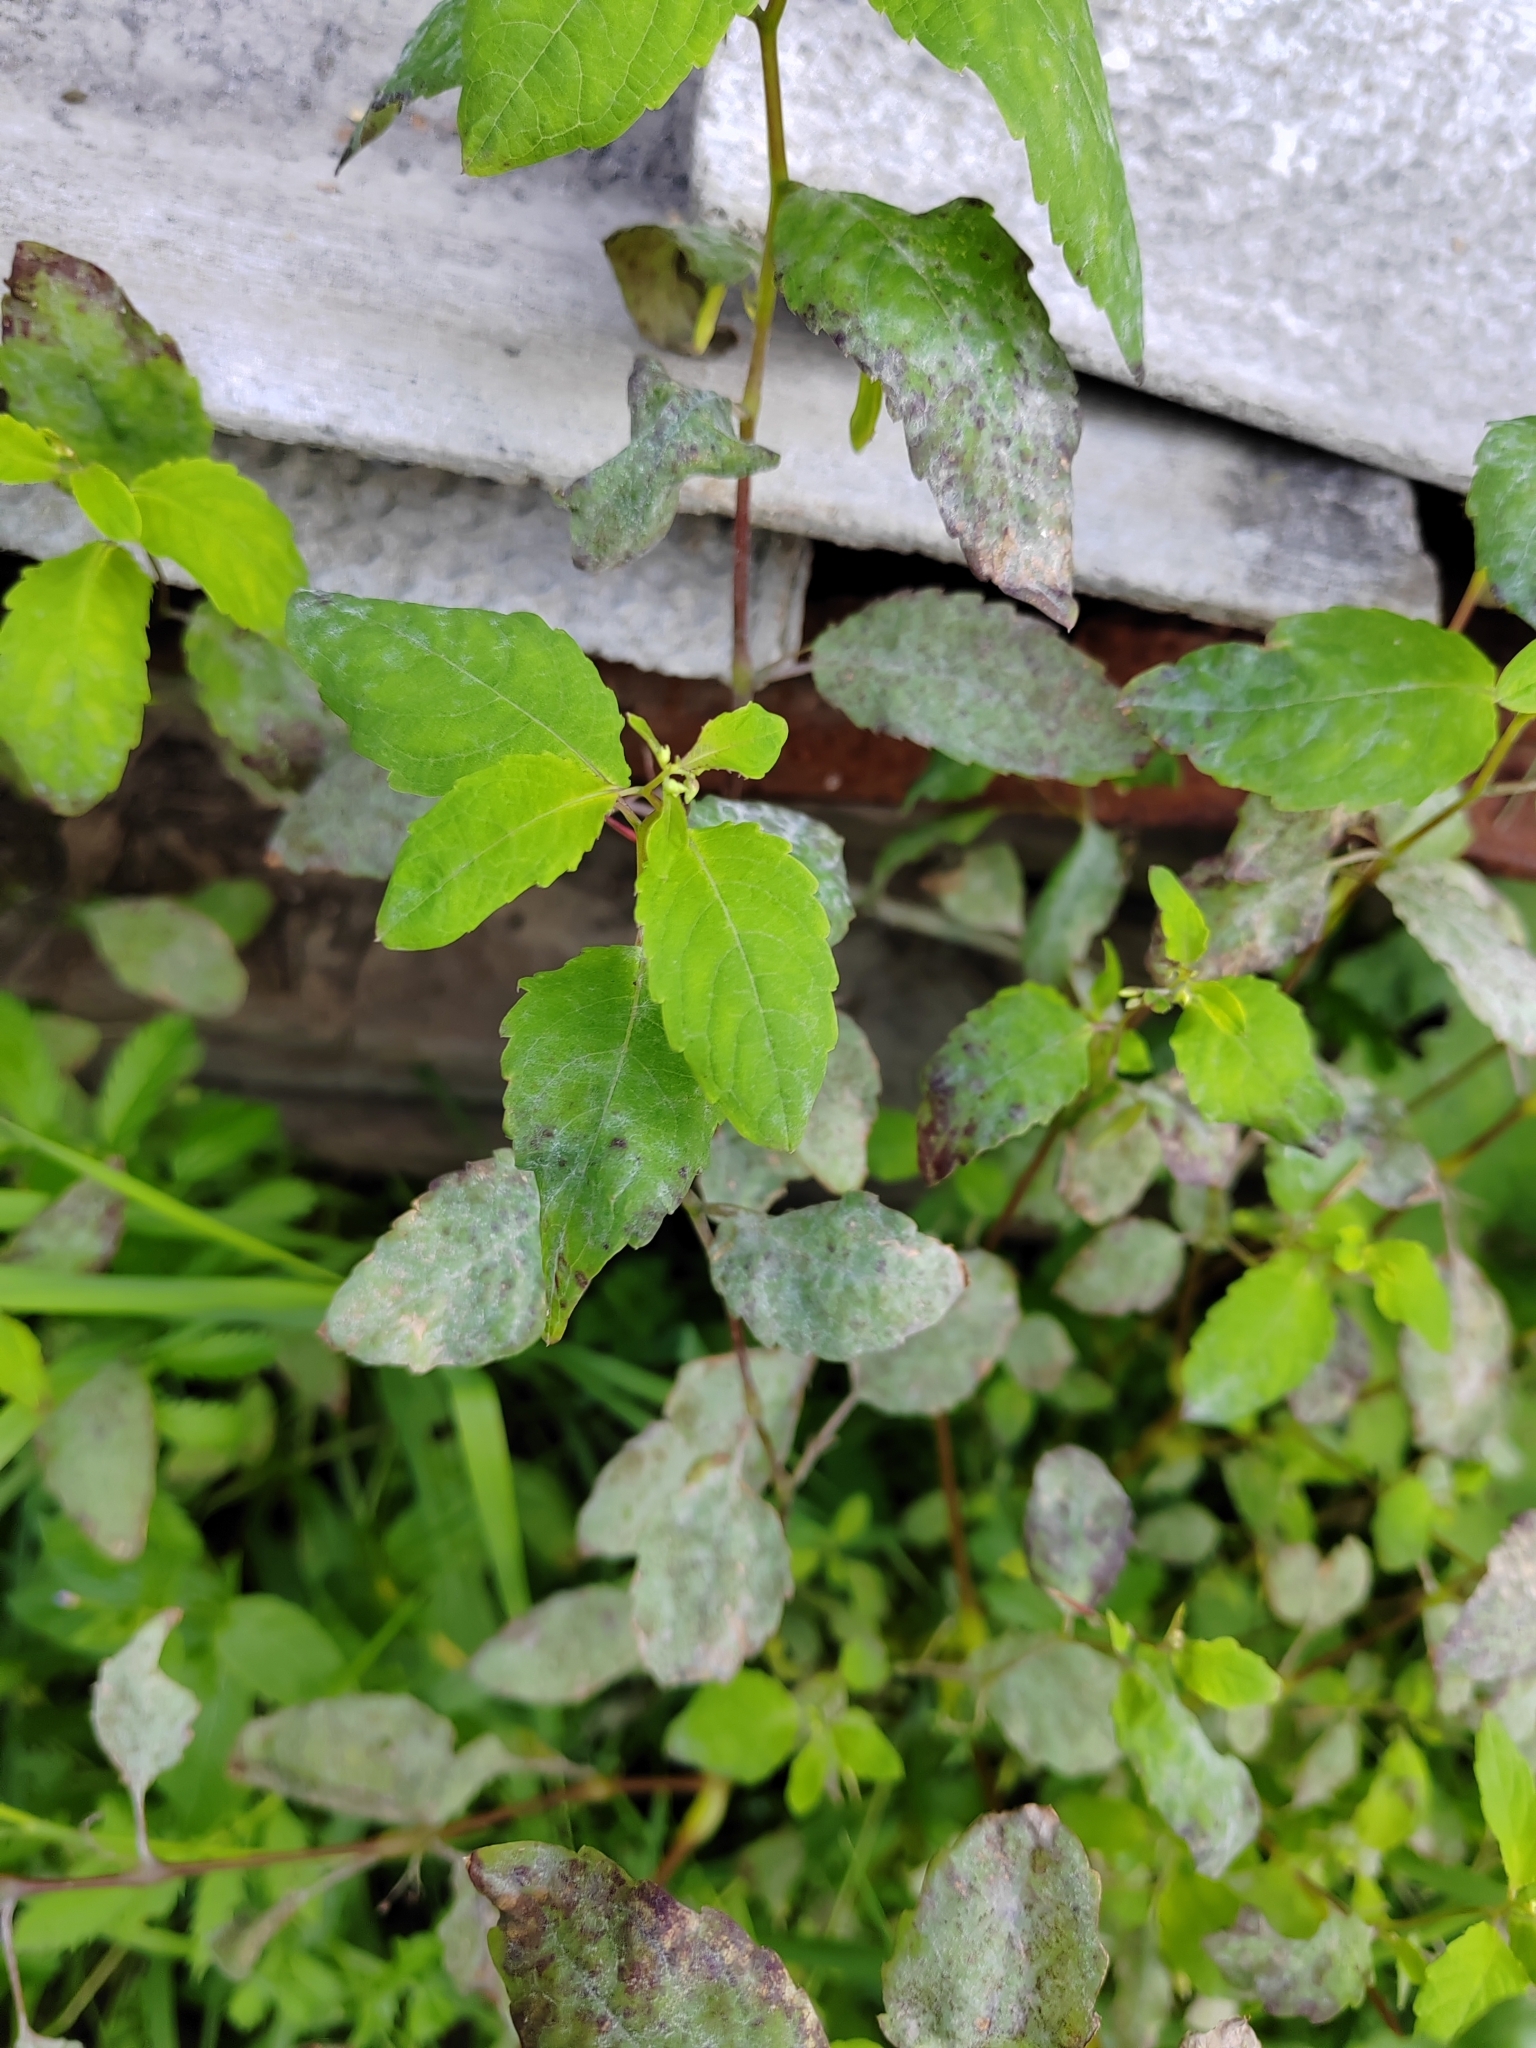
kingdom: Plantae
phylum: Tracheophyta
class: Magnoliopsida
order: Ericales
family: Balsaminaceae
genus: Impatiens
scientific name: Impatiens noli-tangere
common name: Touch-me-not balsam
